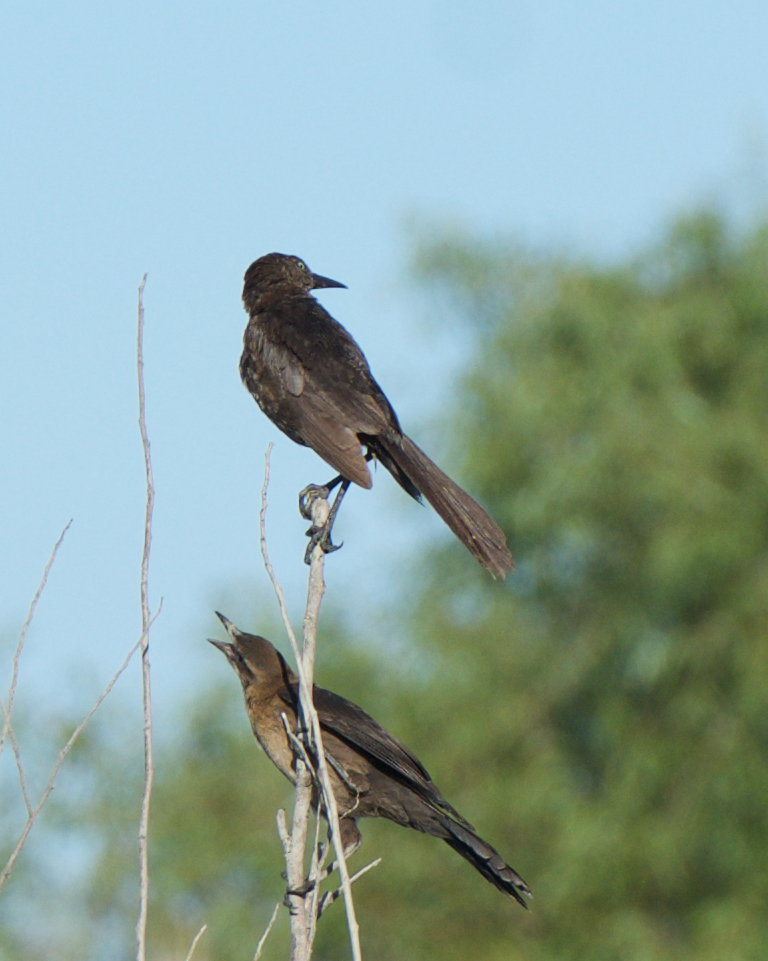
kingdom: Animalia
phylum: Chordata
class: Aves
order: Passeriformes
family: Icteridae
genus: Quiscalus
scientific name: Quiscalus mexicanus
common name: Great-tailed grackle
